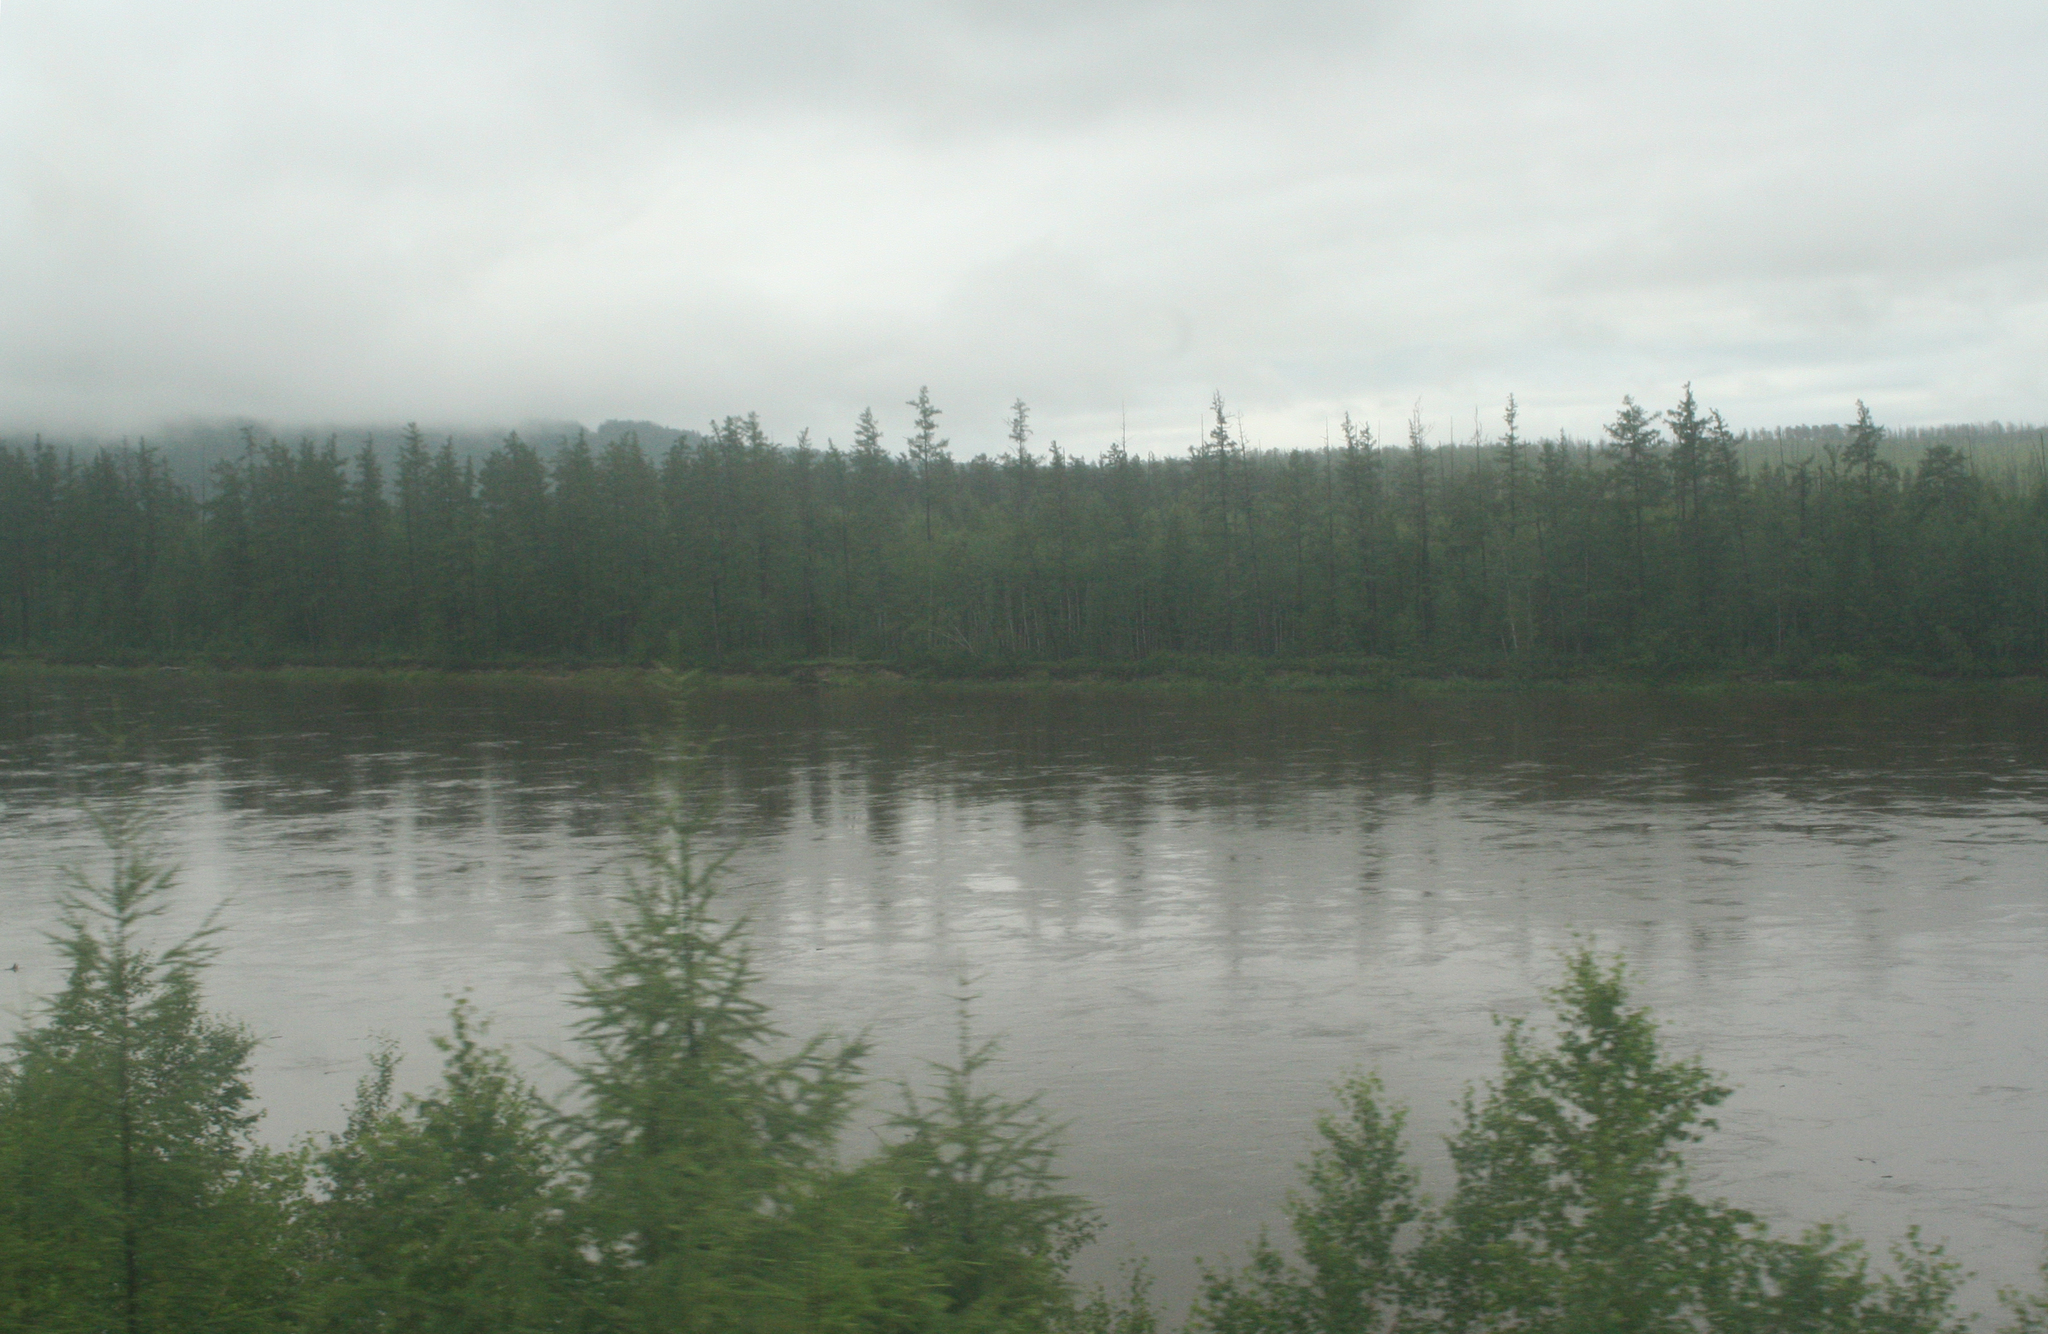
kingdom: Plantae
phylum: Tracheophyta
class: Pinopsida
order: Pinales
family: Pinaceae
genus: Larix
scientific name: Larix gmelinii
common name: Dahurian larch
